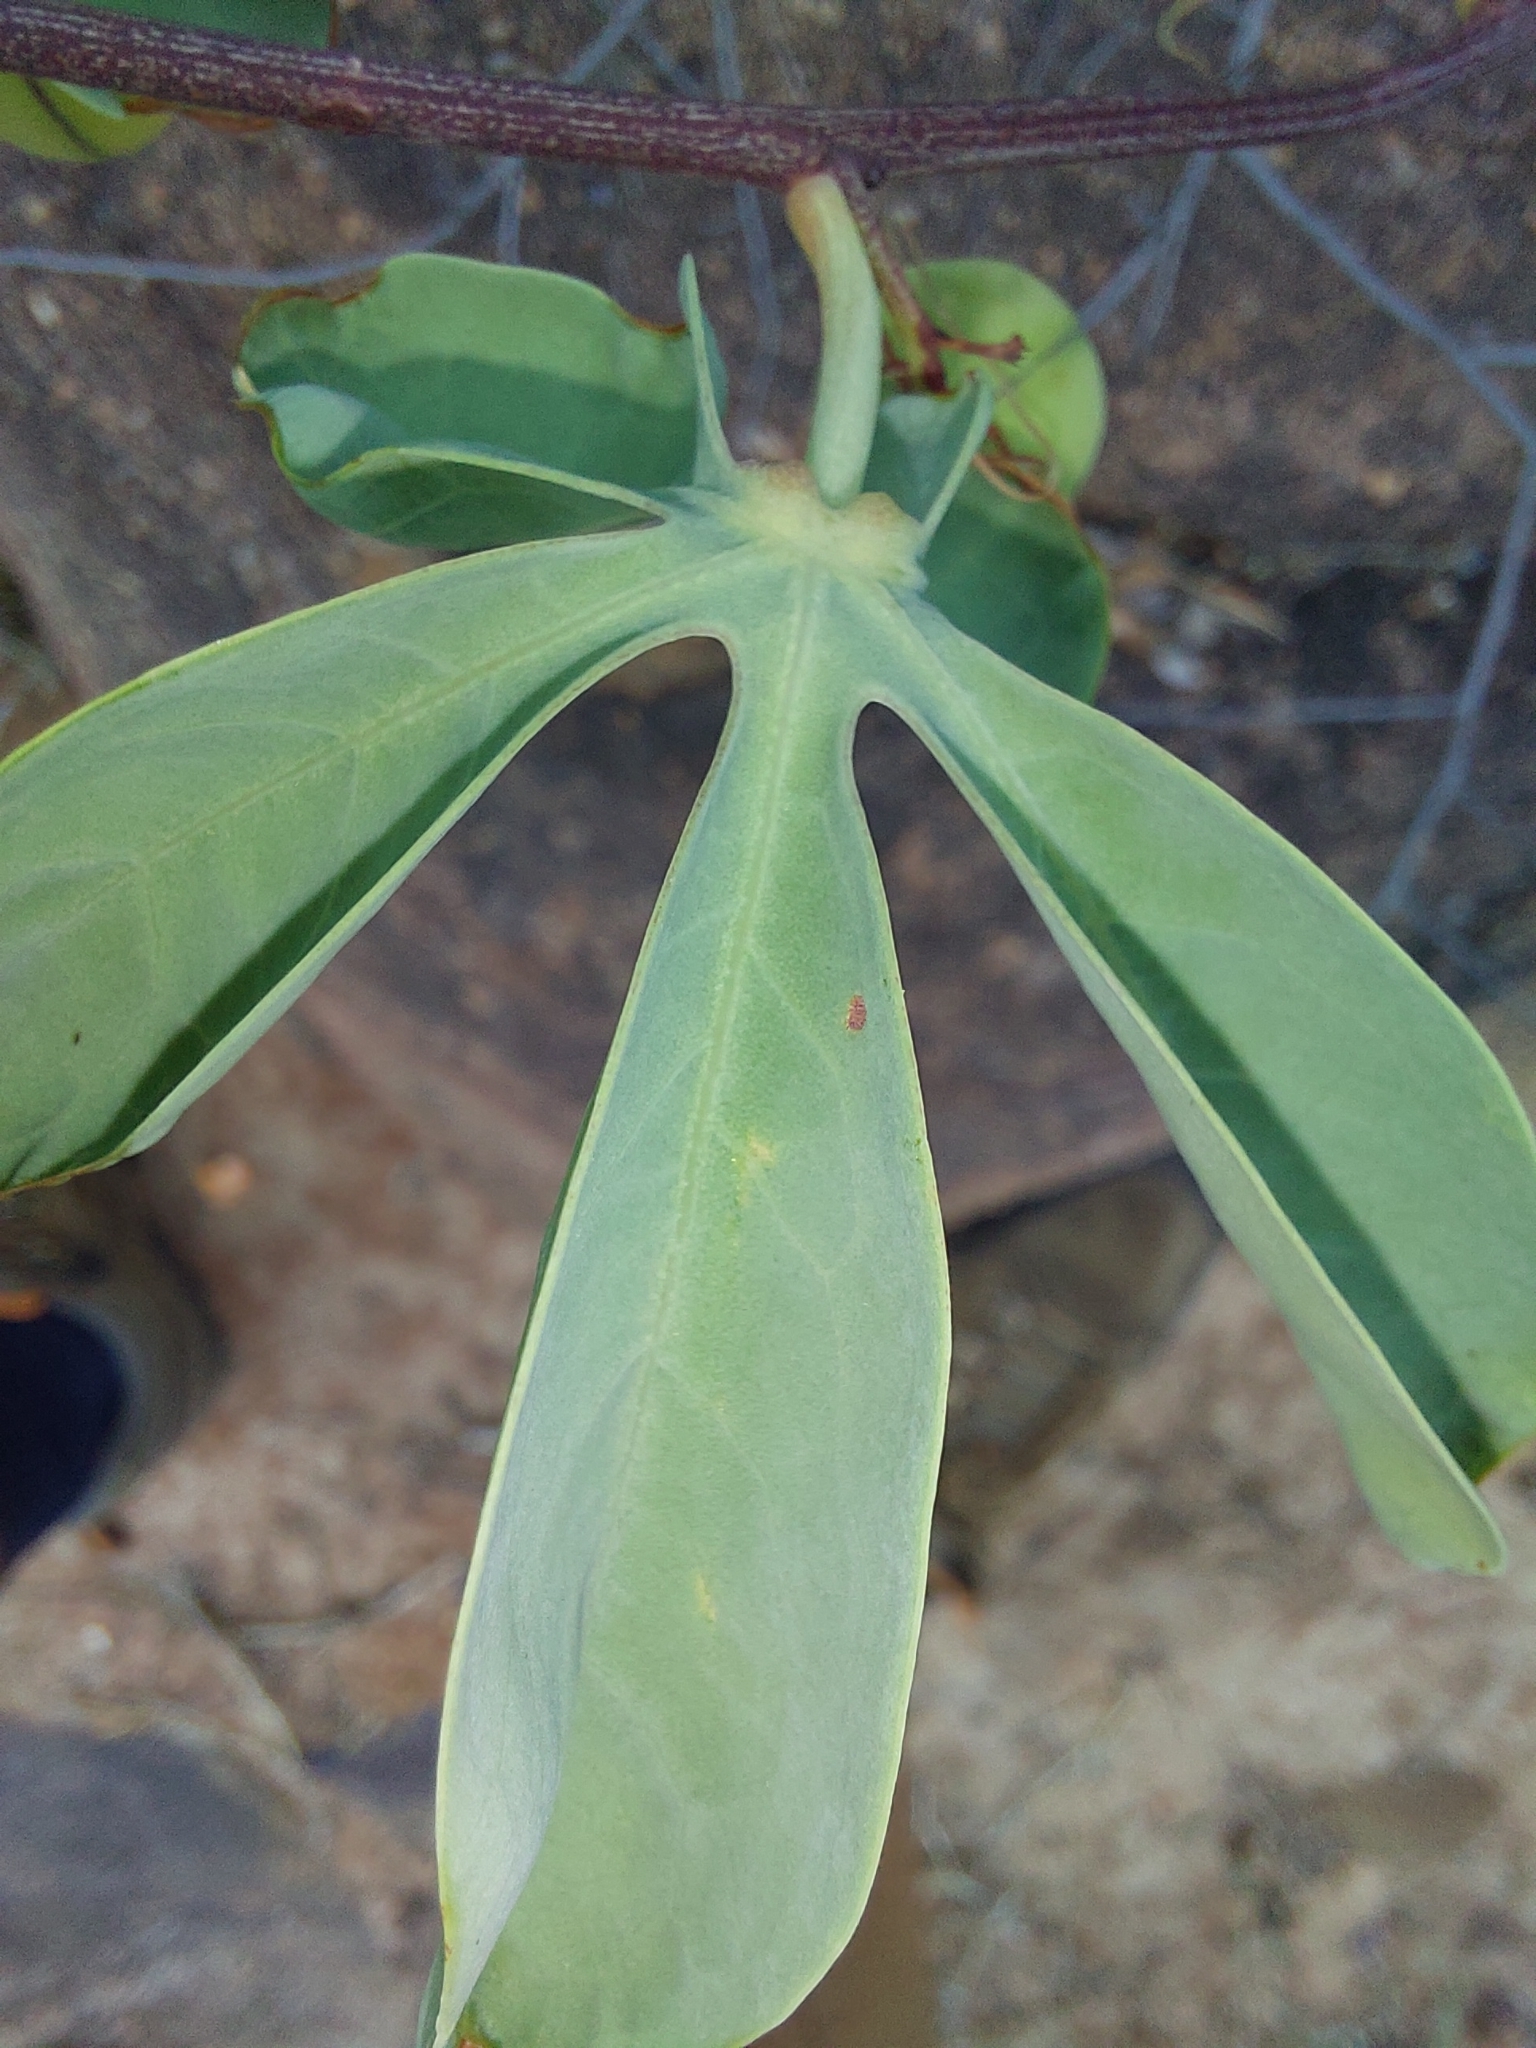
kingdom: Plantae
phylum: Tracheophyta
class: Magnoliopsida
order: Malpighiales
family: Passifloraceae
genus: Adenia
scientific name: Adenia glauca
